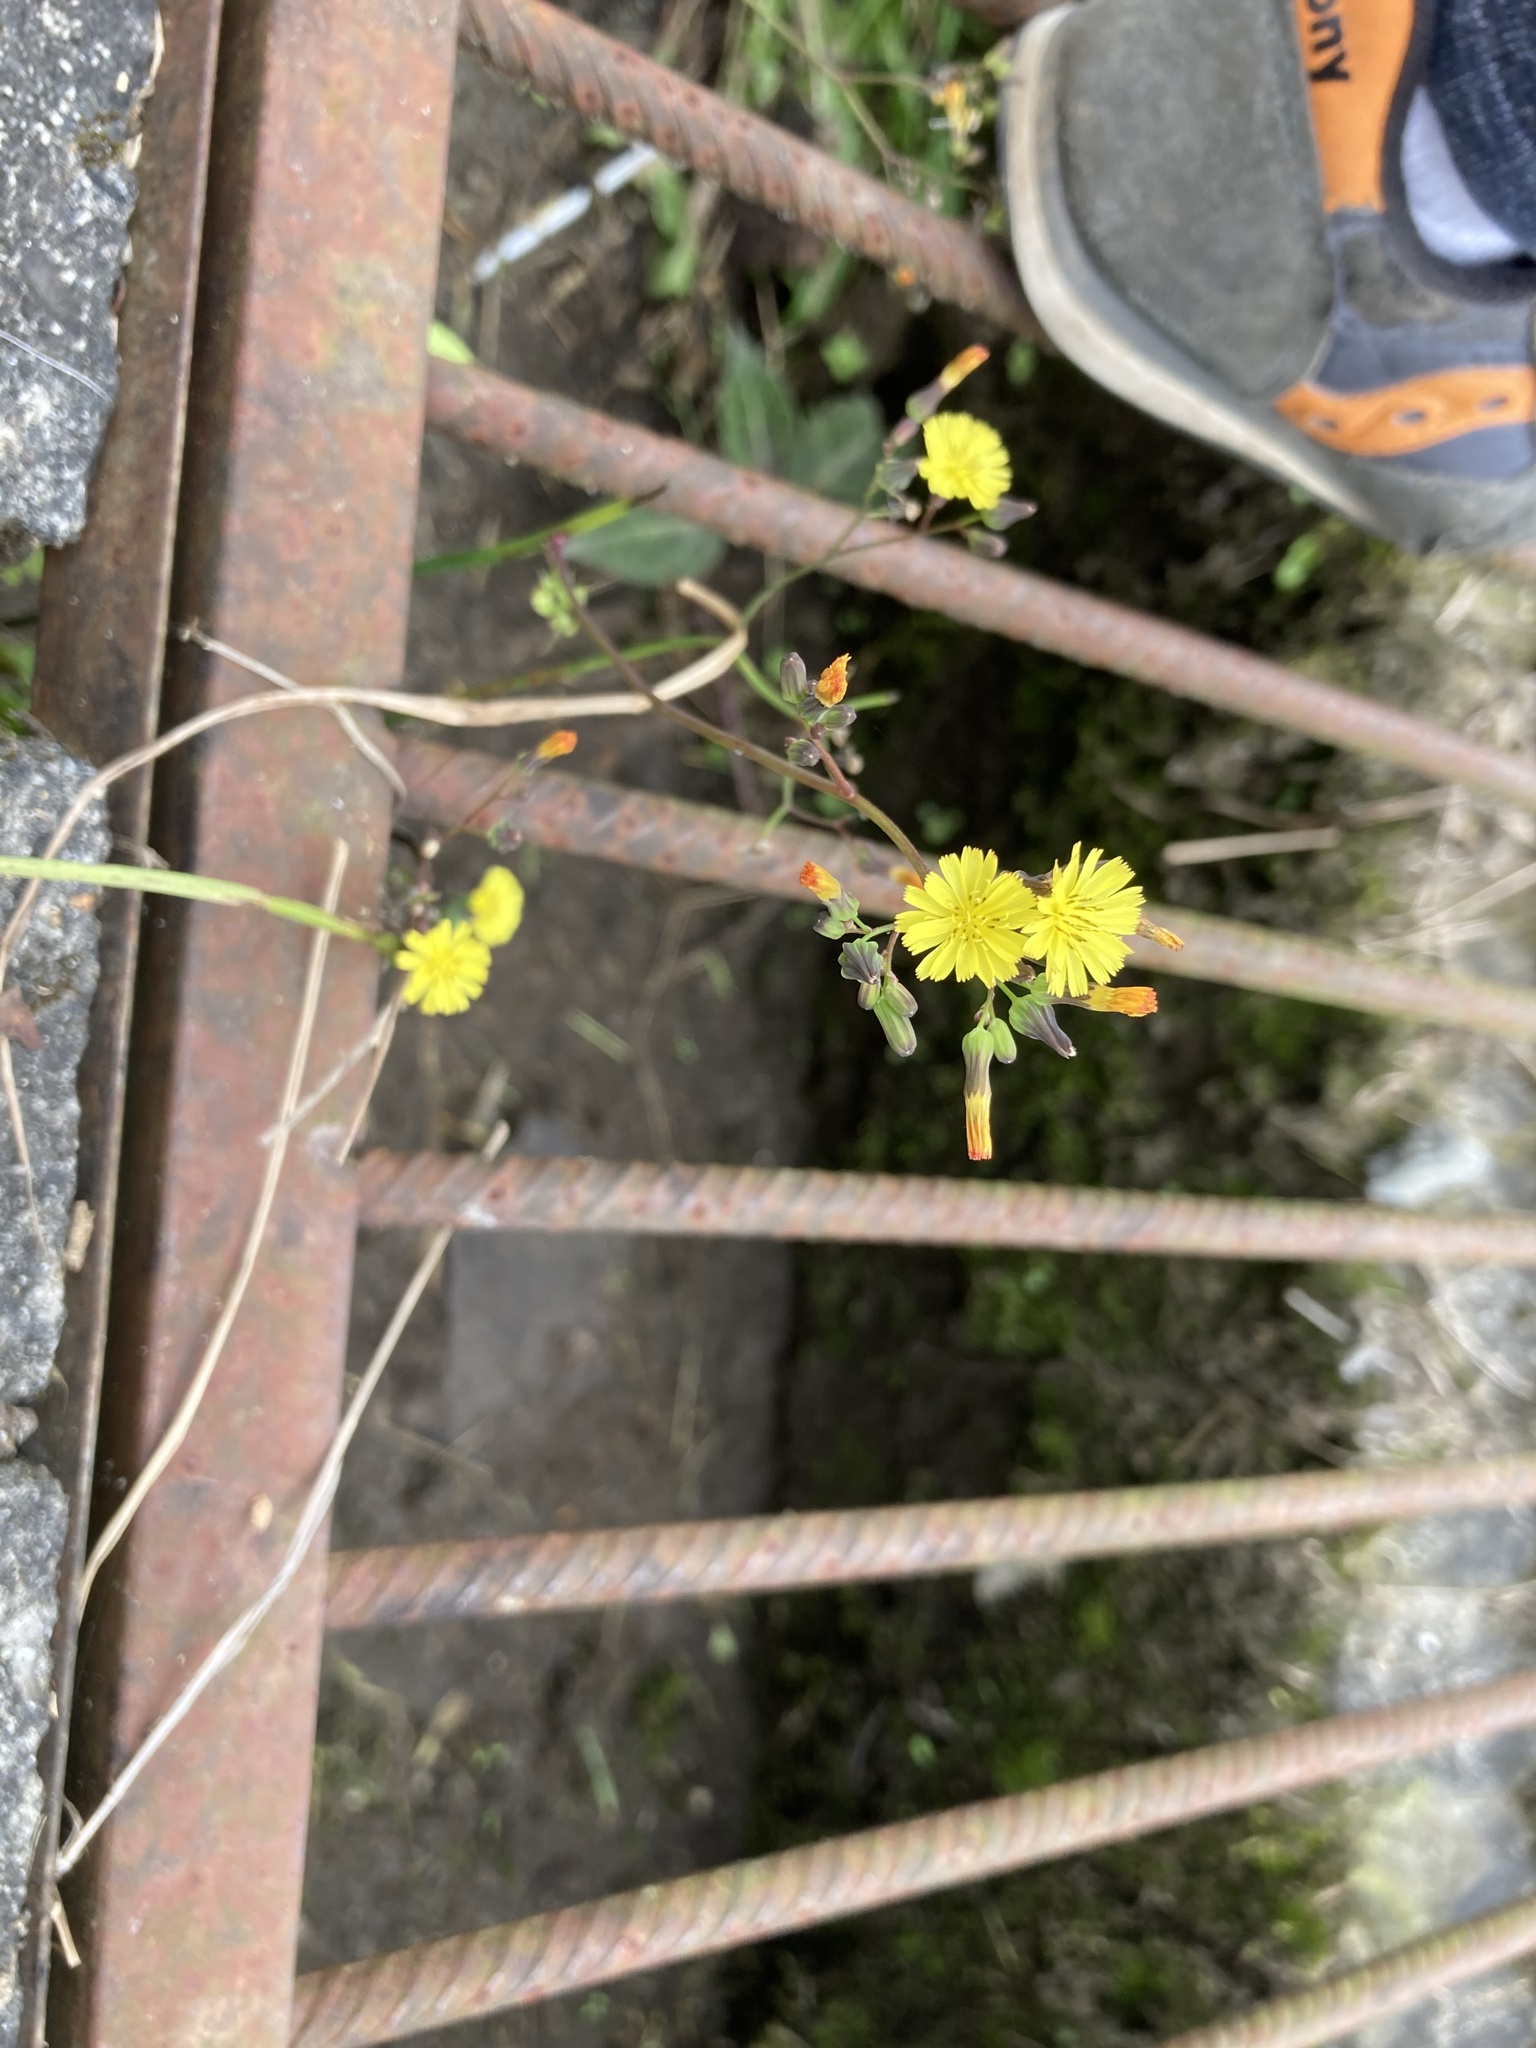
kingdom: Plantae
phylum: Tracheophyta
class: Magnoliopsida
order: Asterales
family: Asteraceae
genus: Youngia
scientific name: Youngia japonica
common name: Oriental false hawksbeard
